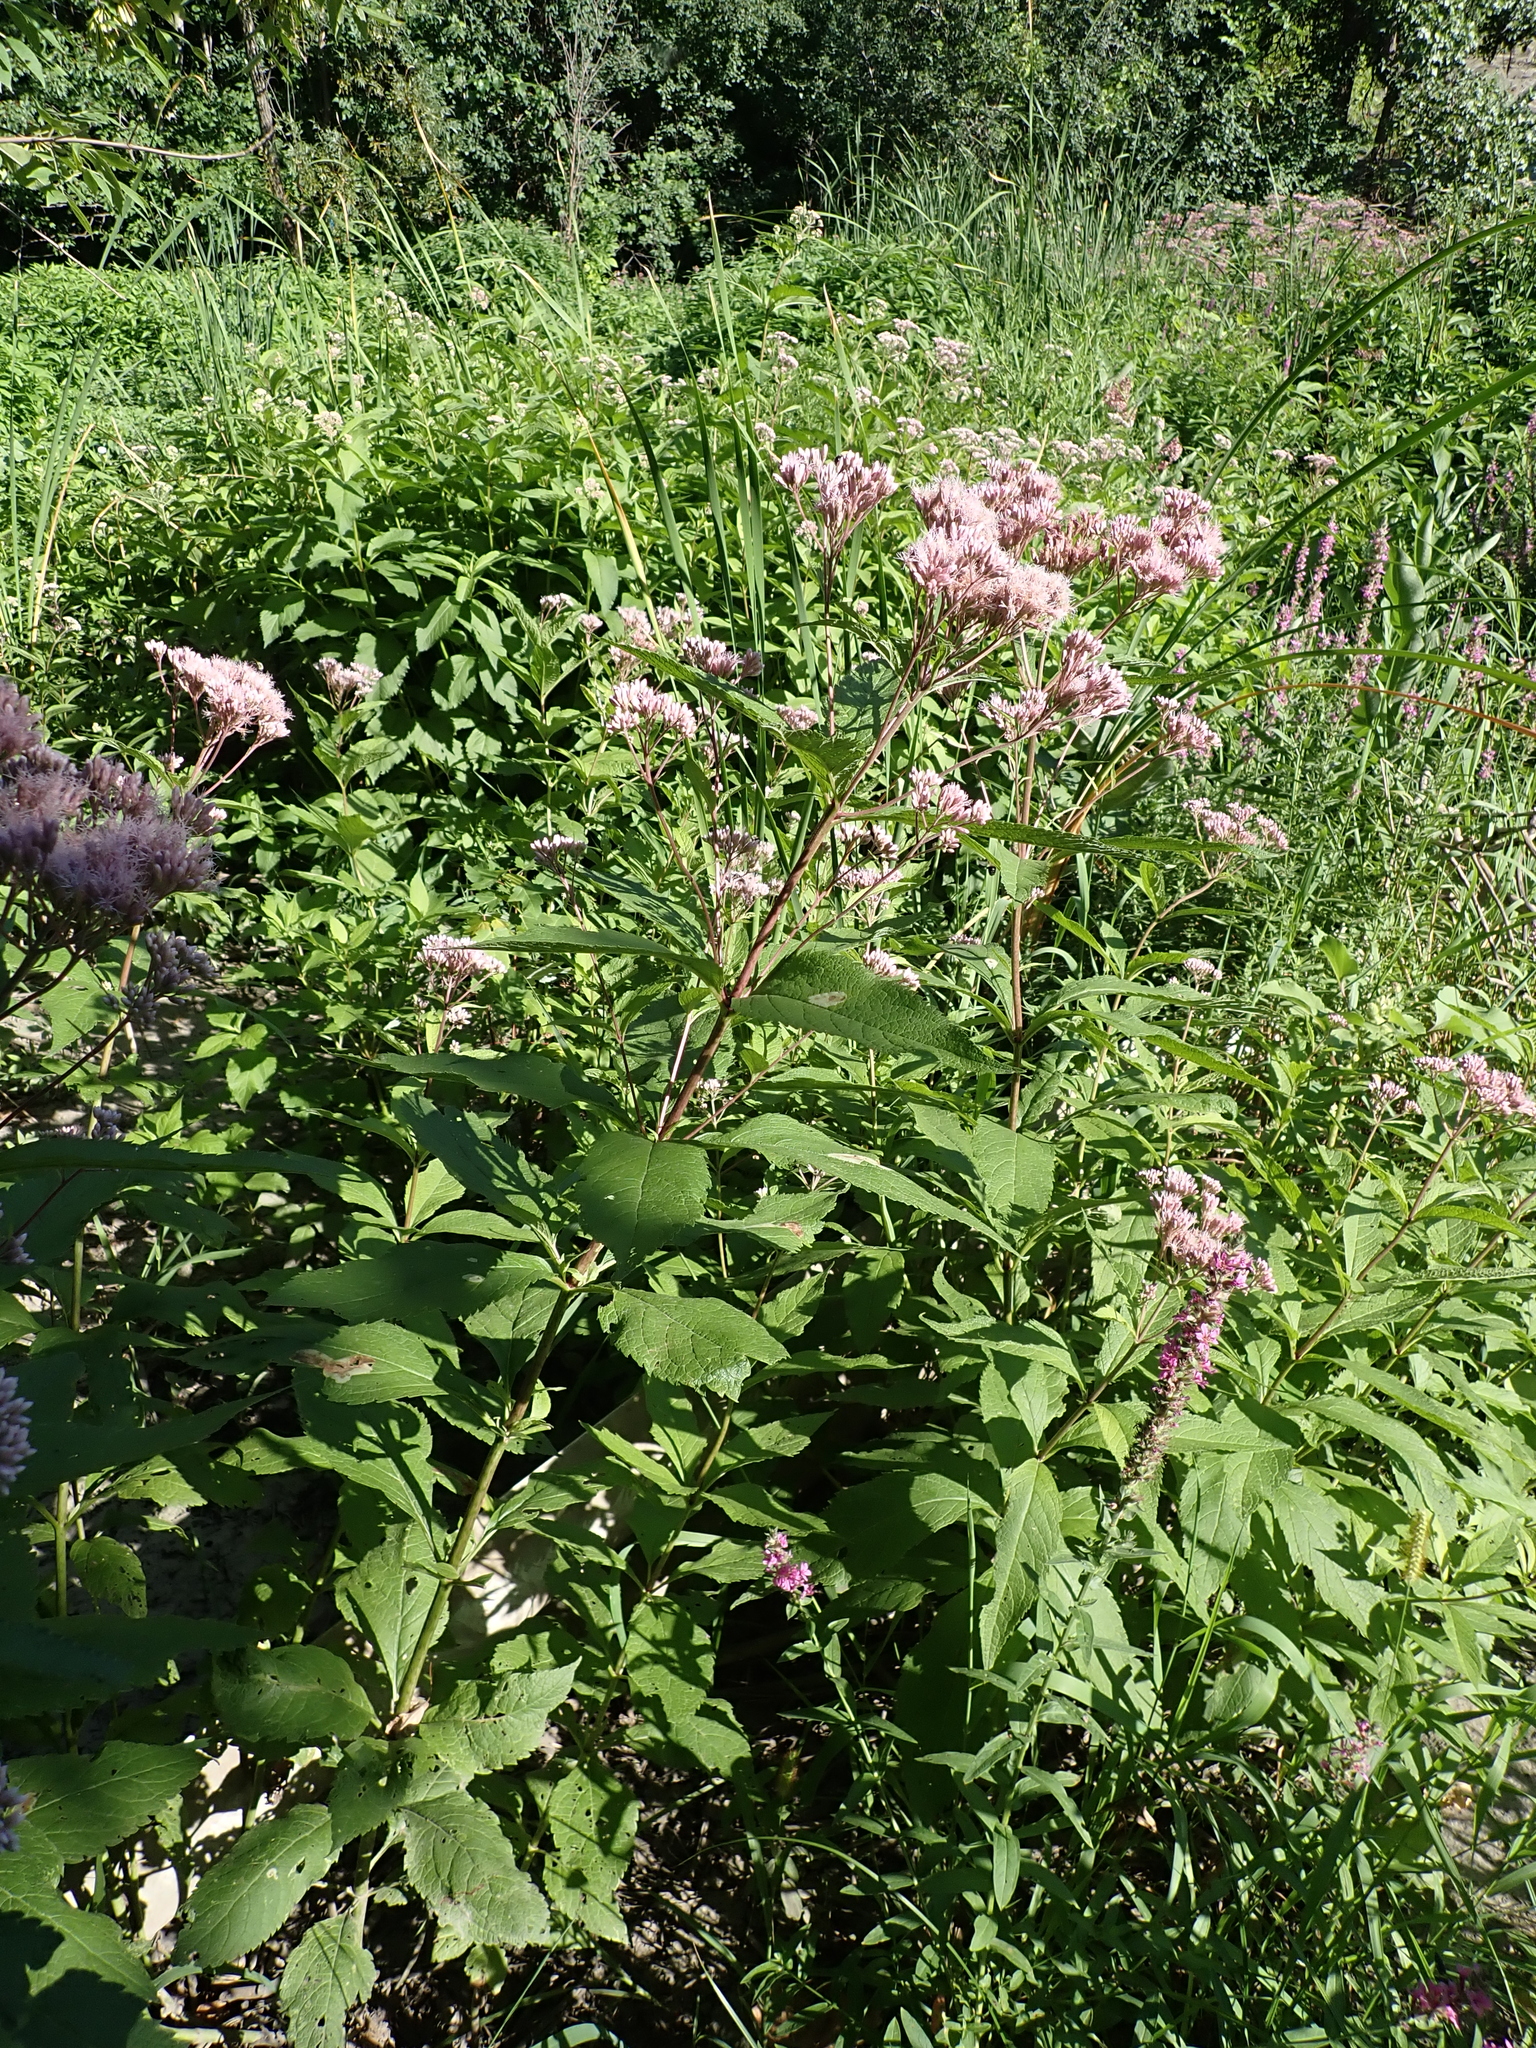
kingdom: Plantae
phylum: Tracheophyta
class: Magnoliopsida
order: Asterales
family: Asteraceae
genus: Eutrochium
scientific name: Eutrochium maculatum
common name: Spotted joe pye weed
